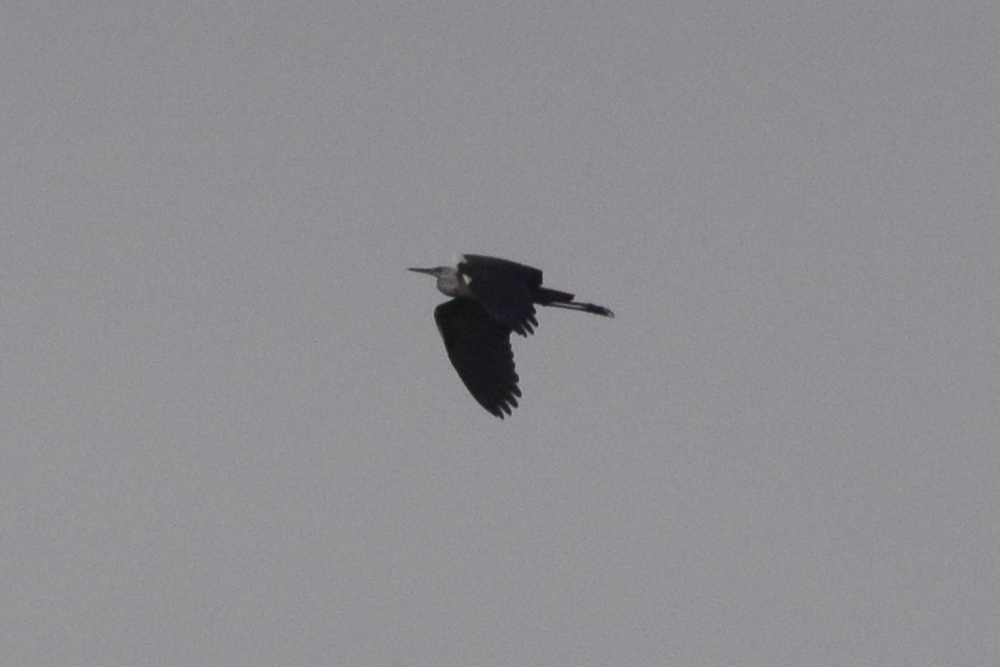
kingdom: Animalia
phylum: Chordata
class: Aves
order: Pelecaniformes
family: Ardeidae
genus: Ardea
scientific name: Ardea pacifica
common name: White-necked heron
